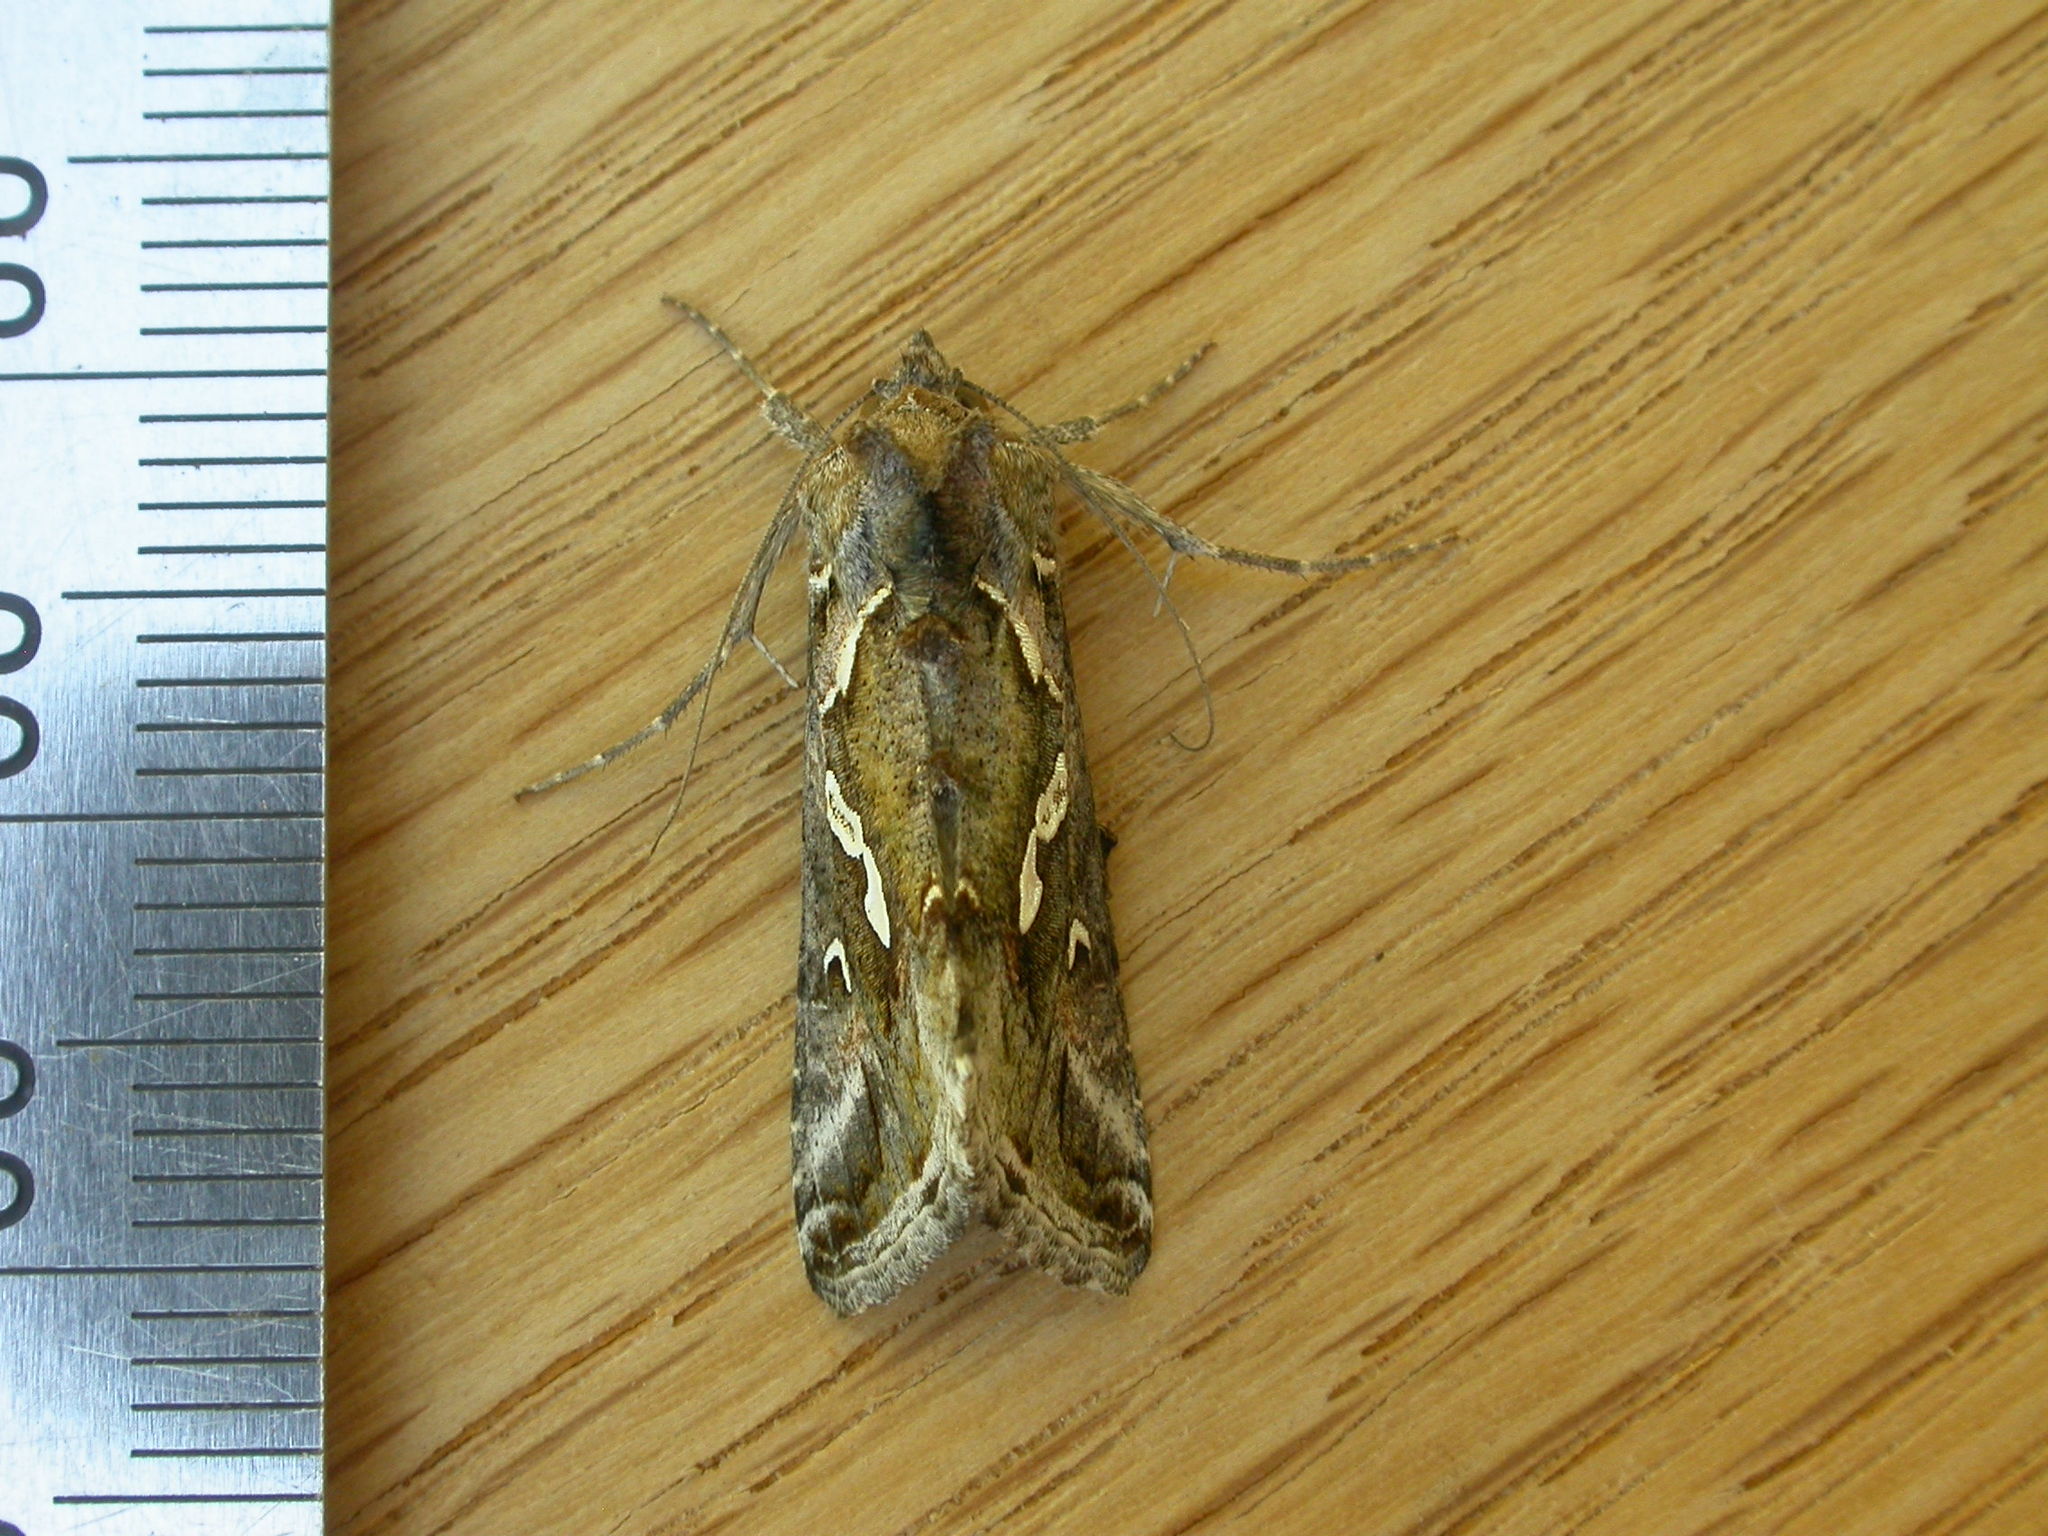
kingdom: Animalia
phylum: Arthropoda
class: Insecta
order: Lepidoptera
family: Noctuidae
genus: Chrysodeixis
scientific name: Chrysodeixis argentifera
